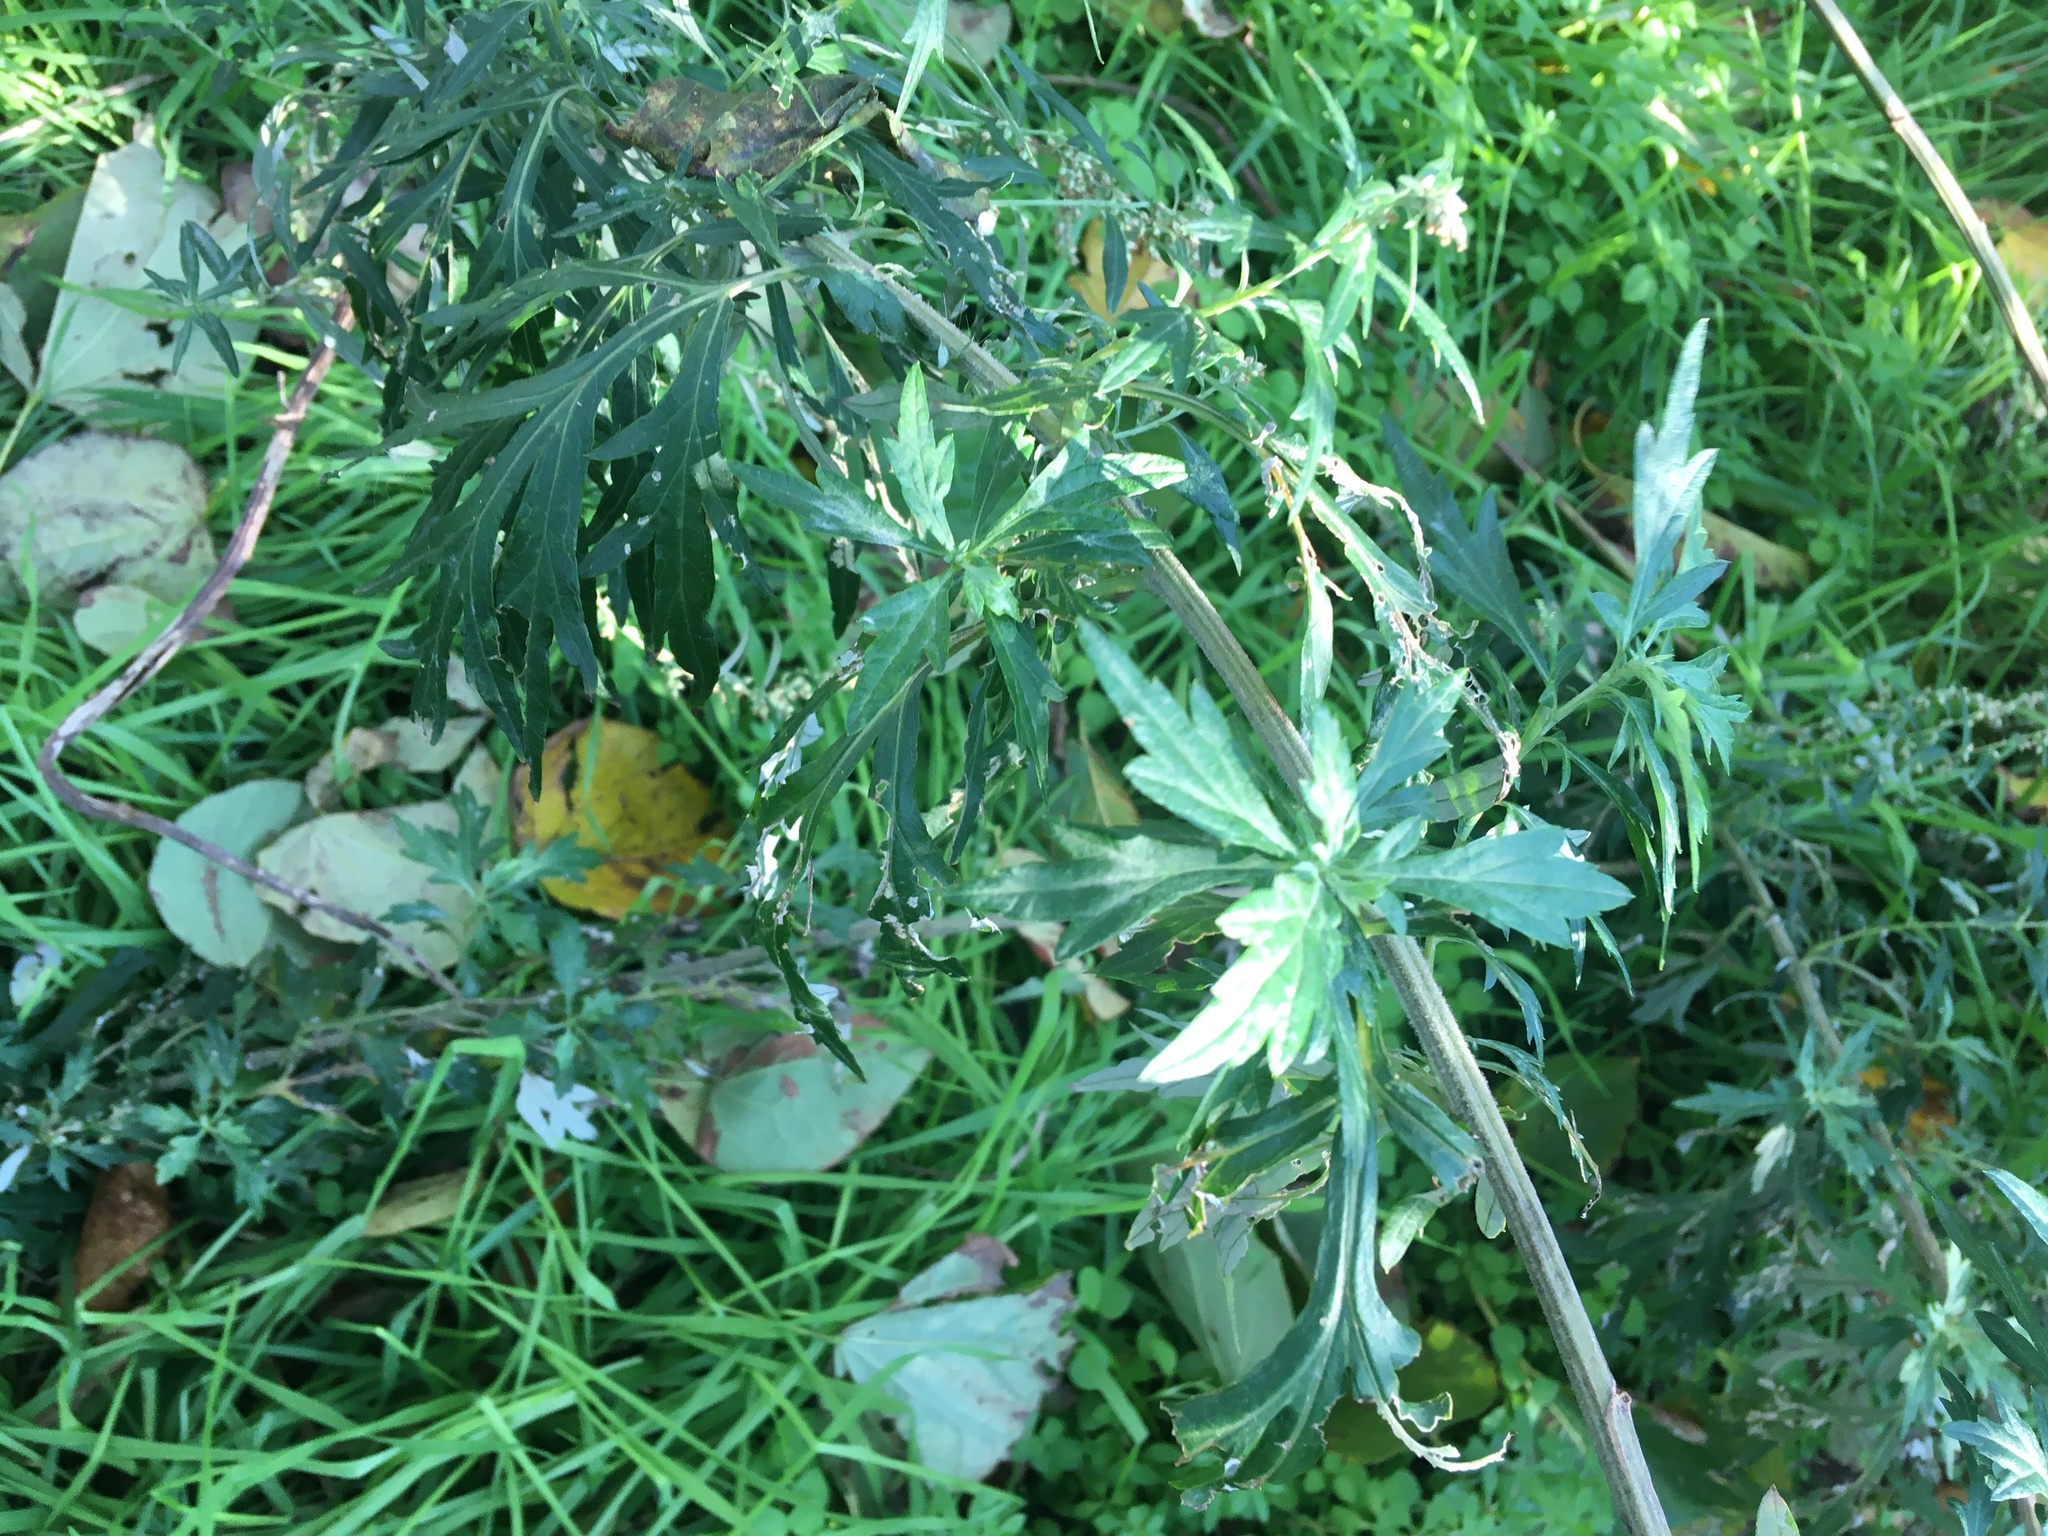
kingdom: Plantae
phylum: Tracheophyta
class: Magnoliopsida
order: Asterales
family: Asteraceae
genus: Artemisia
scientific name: Artemisia vulgaris
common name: Mugwort
